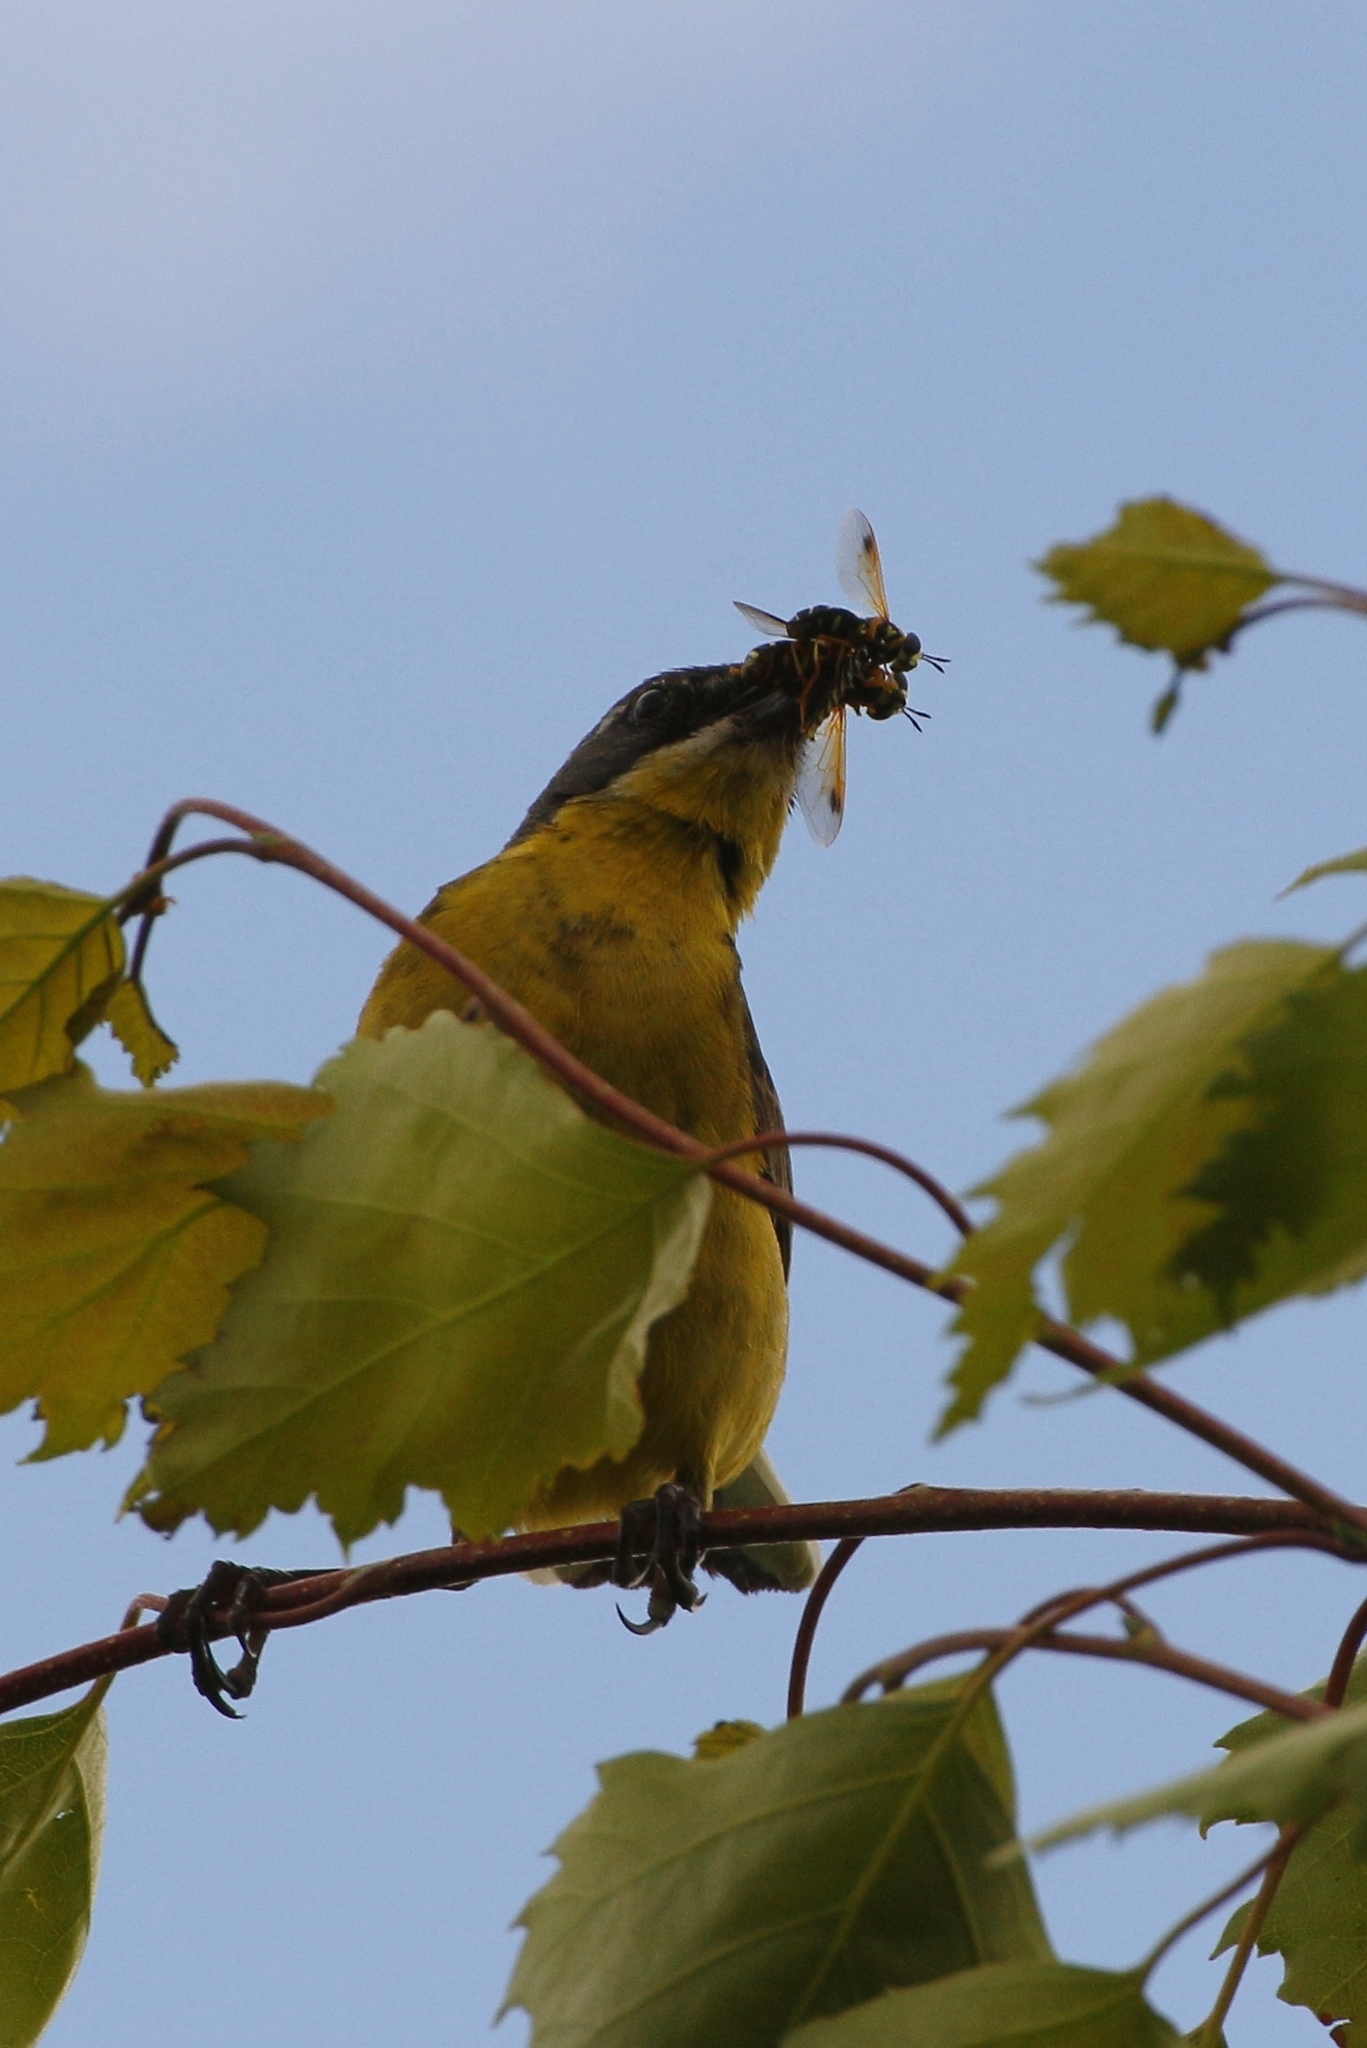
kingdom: Animalia
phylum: Chordata
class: Aves
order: Passeriformes
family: Motacillidae
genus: Motacilla
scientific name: Motacilla flava
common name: Western yellow wagtail
